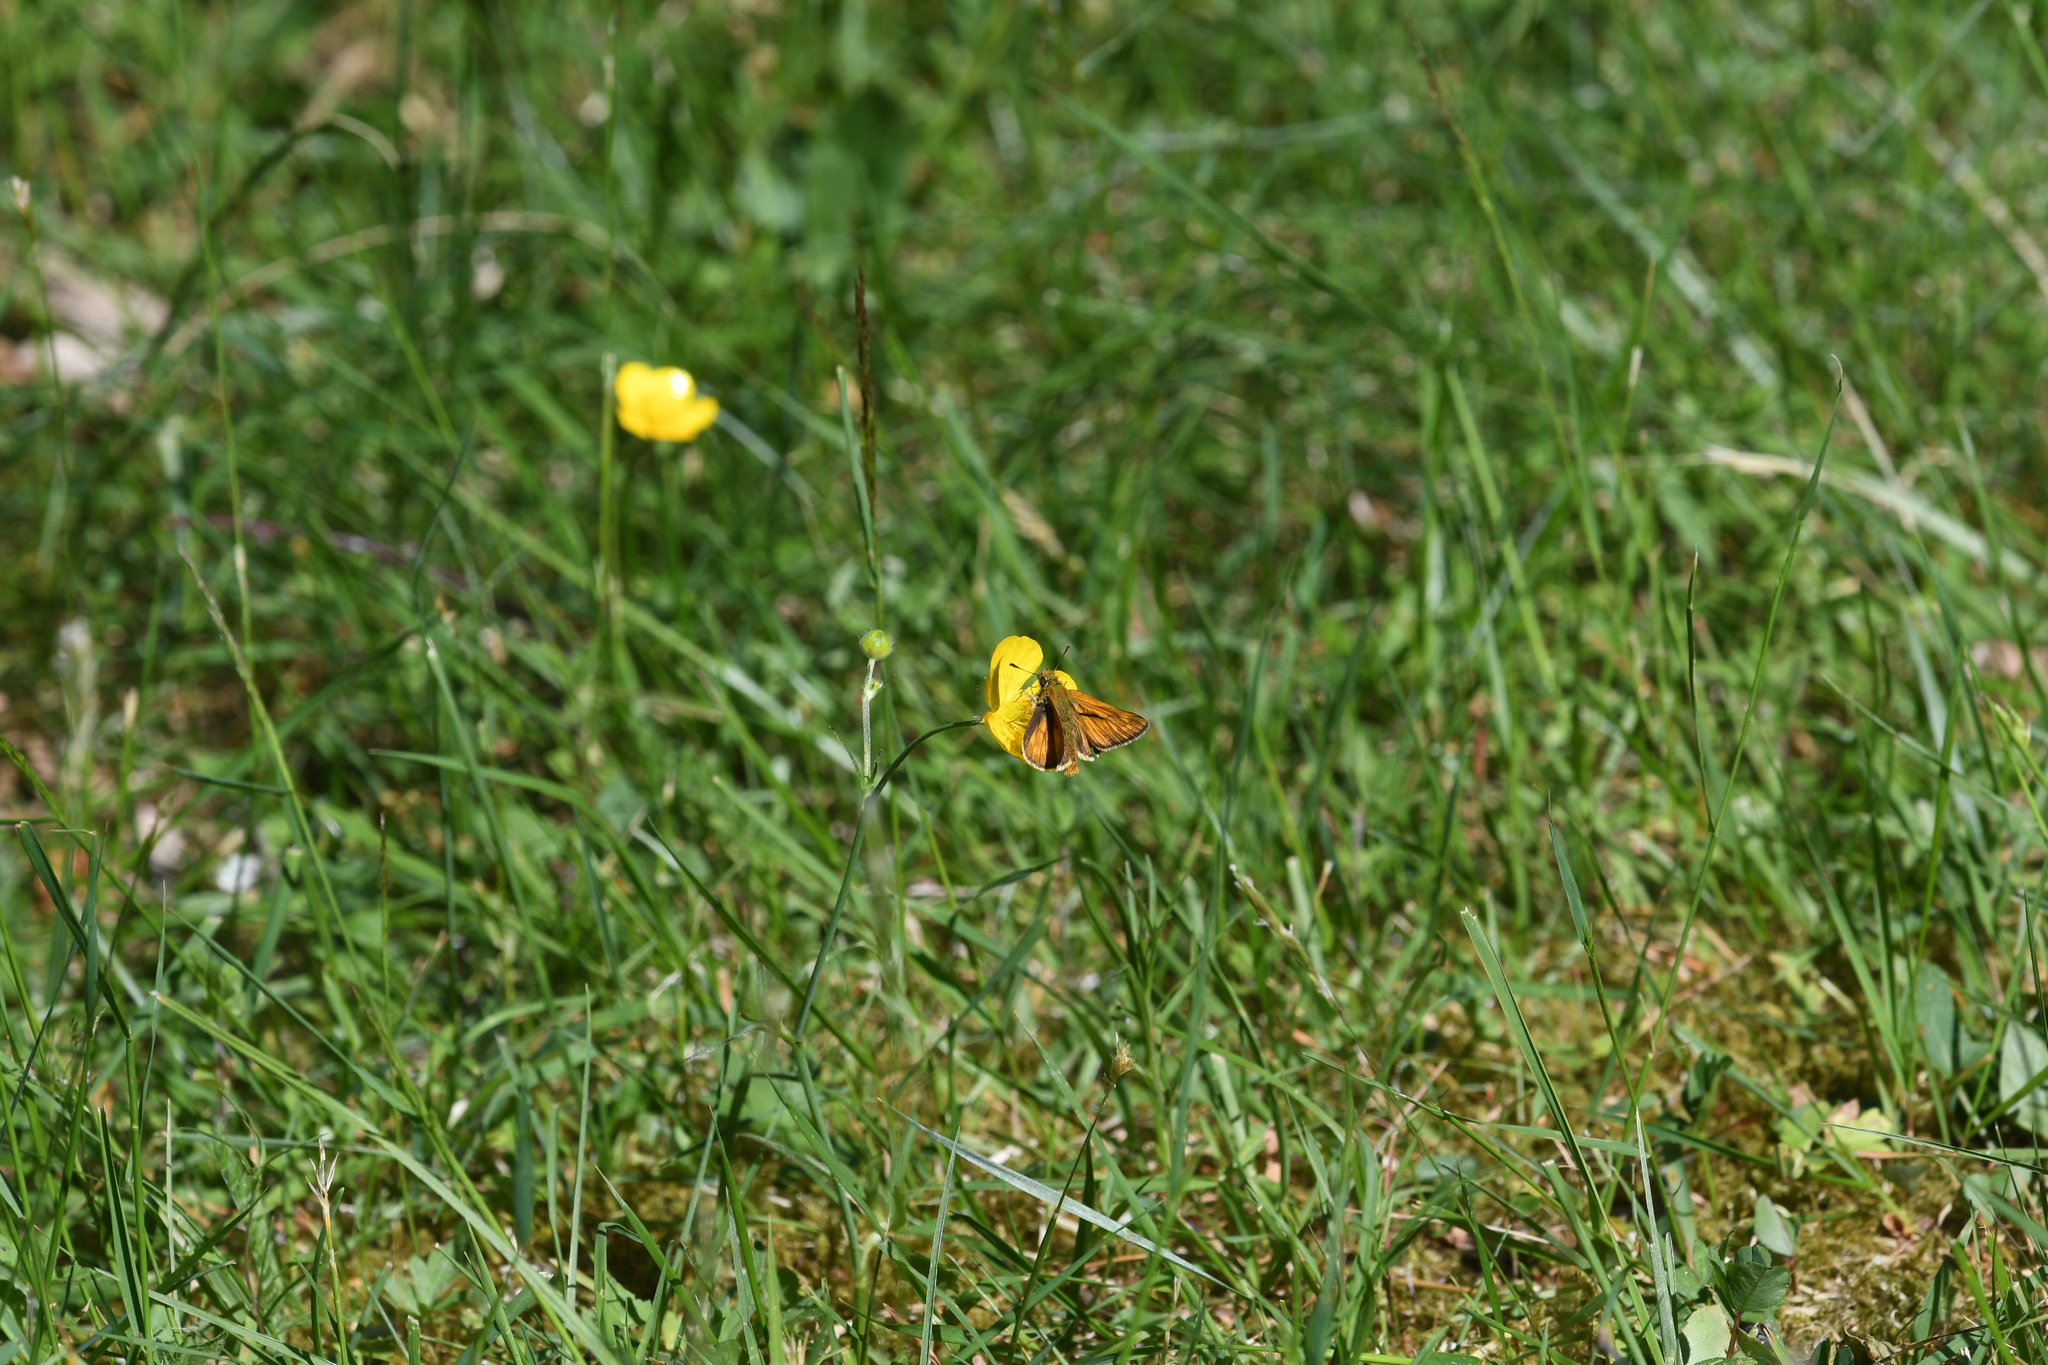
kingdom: Animalia
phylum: Arthropoda
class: Insecta
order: Lepidoptera
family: Hesperiidae
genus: Ochlodes
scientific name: Ochlodes venata
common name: Large skipper
